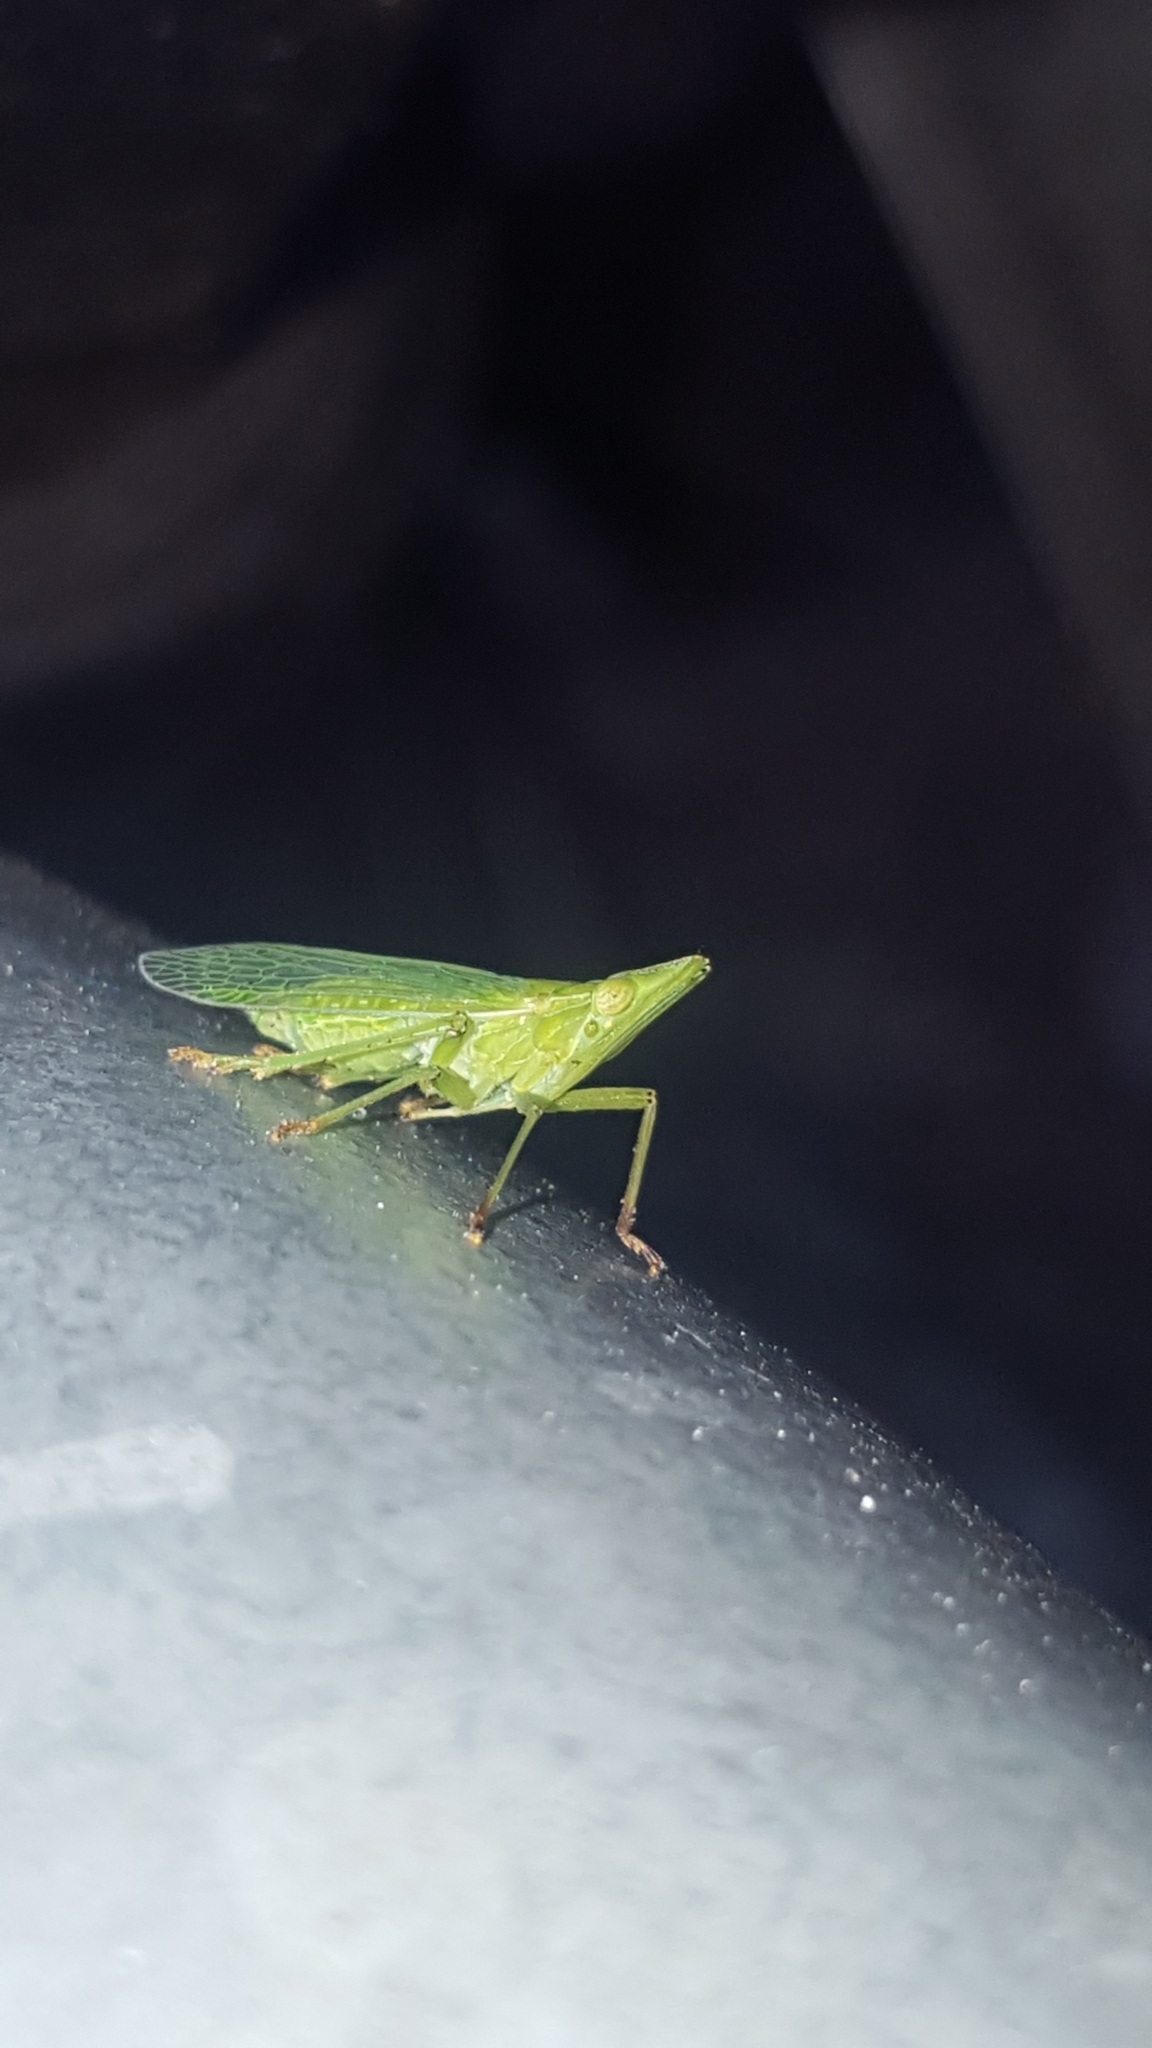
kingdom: Animalia
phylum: Arthropoda
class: Insecta
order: Hemiptera
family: Dictyopharidae
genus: Dictyophara
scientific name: Dictyophara europaea
